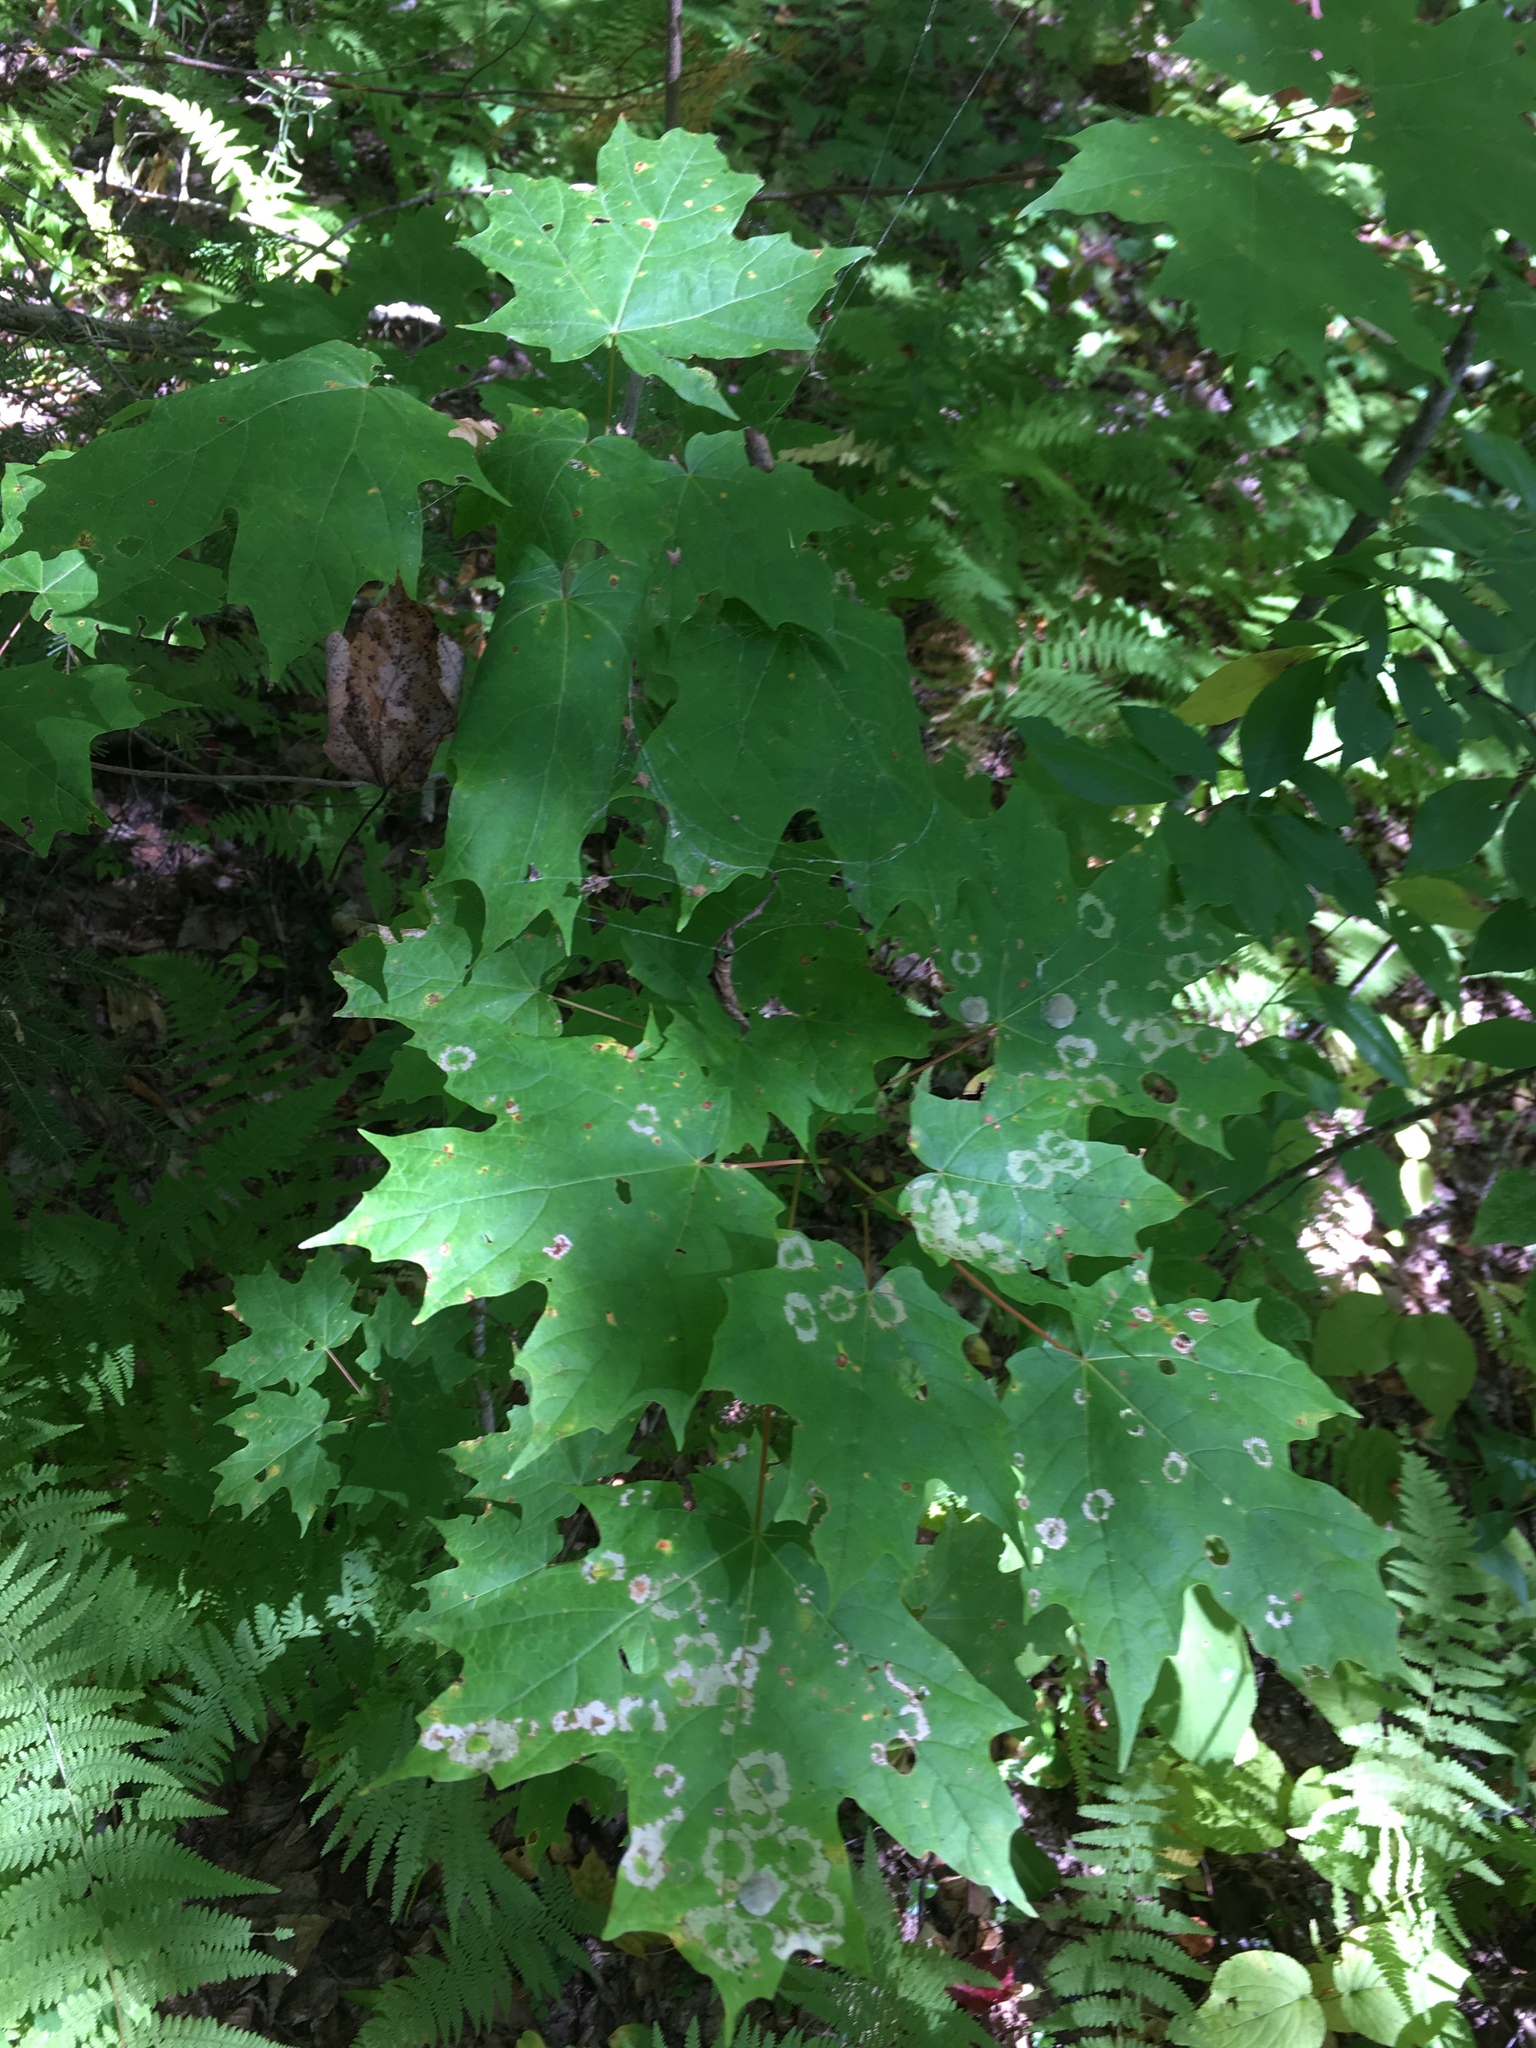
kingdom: Plantae
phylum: Tracheophyta
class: Magnoliopsida
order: Sapindales
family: Sapindaceae
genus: Acer
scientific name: Acer saccharum
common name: Sugar maple
